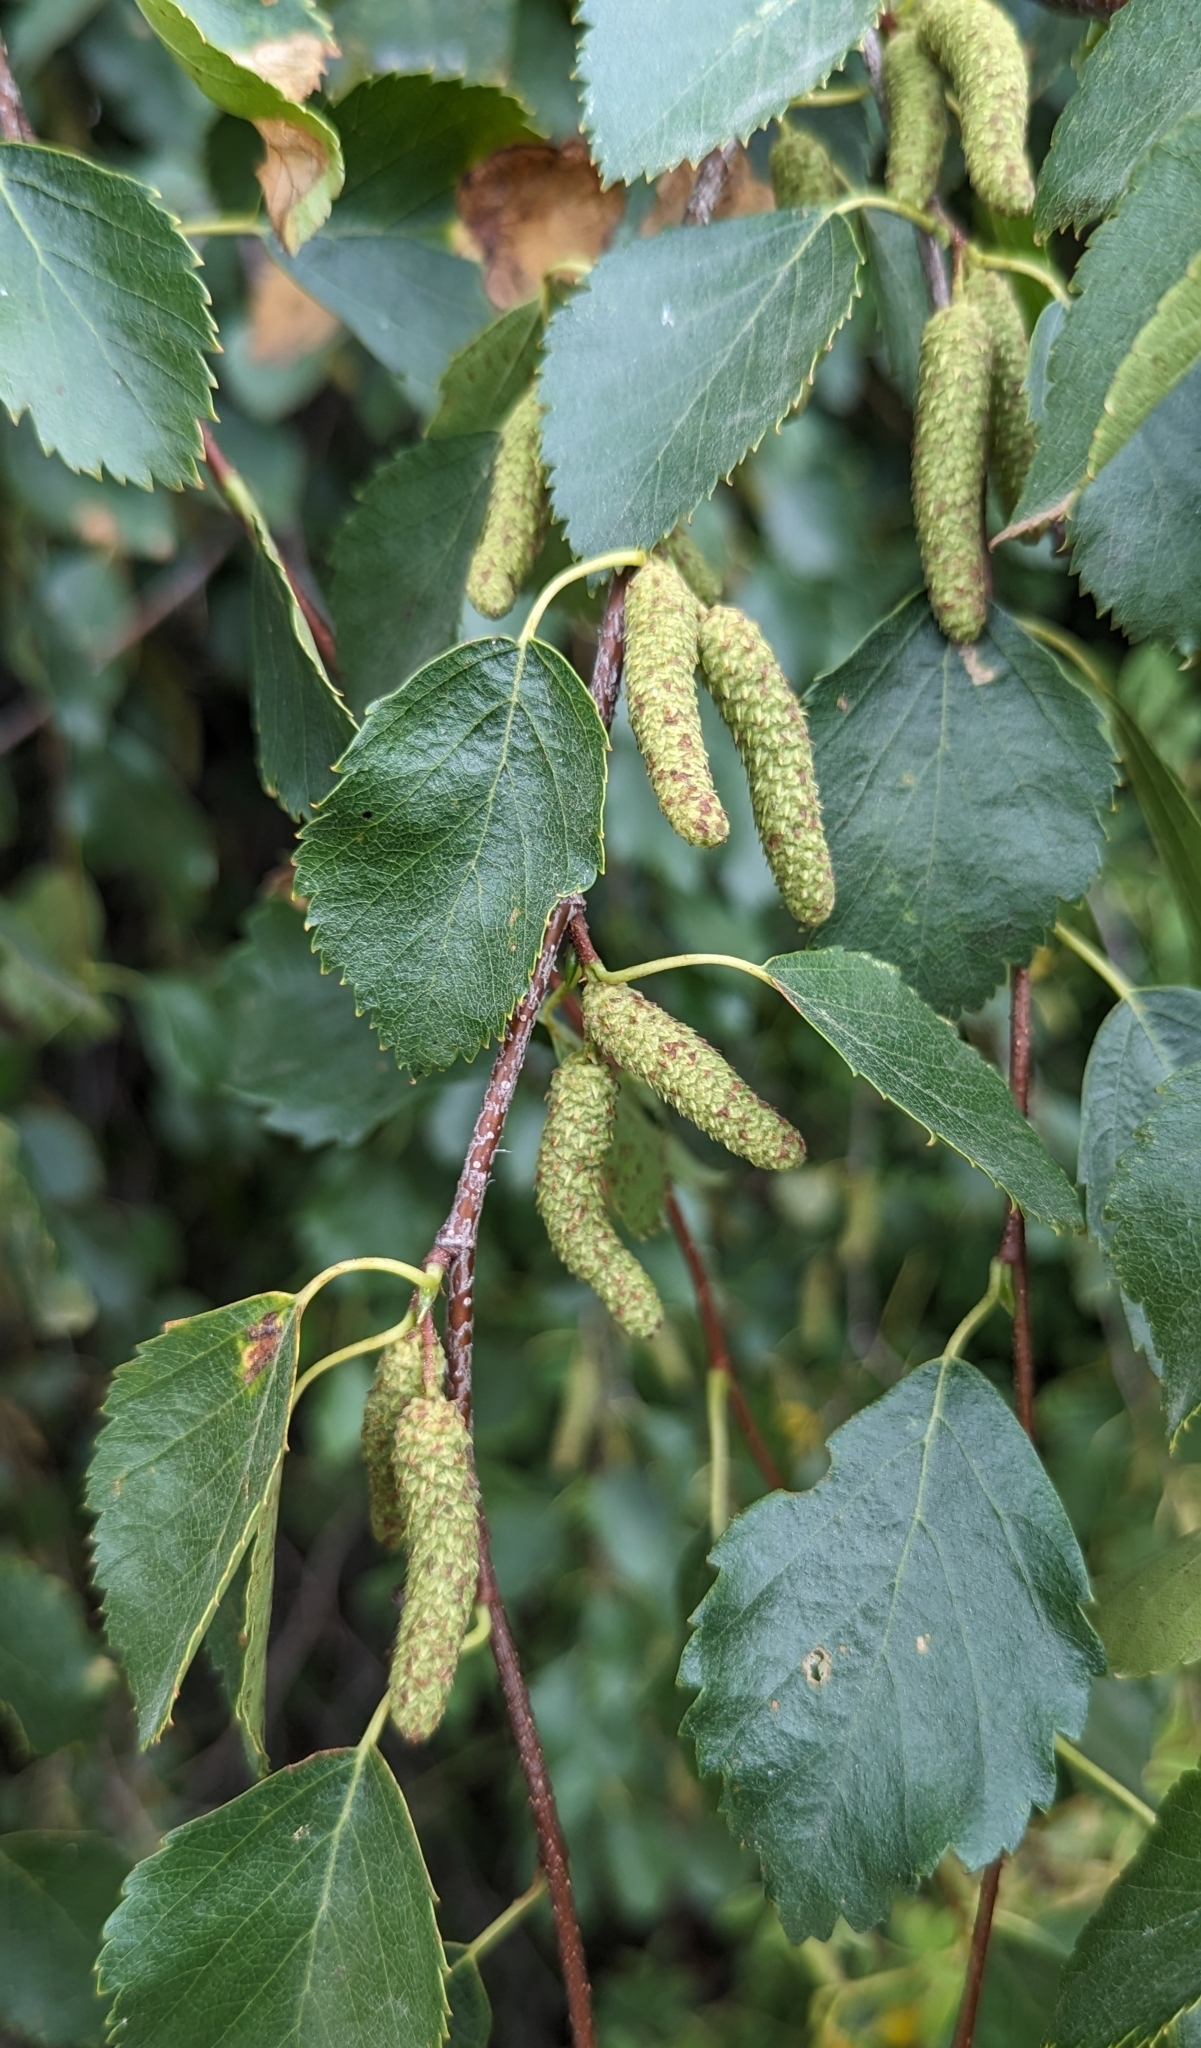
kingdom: Plantae
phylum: Tracheophyta
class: Magnoliopsida
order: Fagales
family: Betulaceae
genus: Betula
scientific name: Betula occidentalis
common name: River birch
